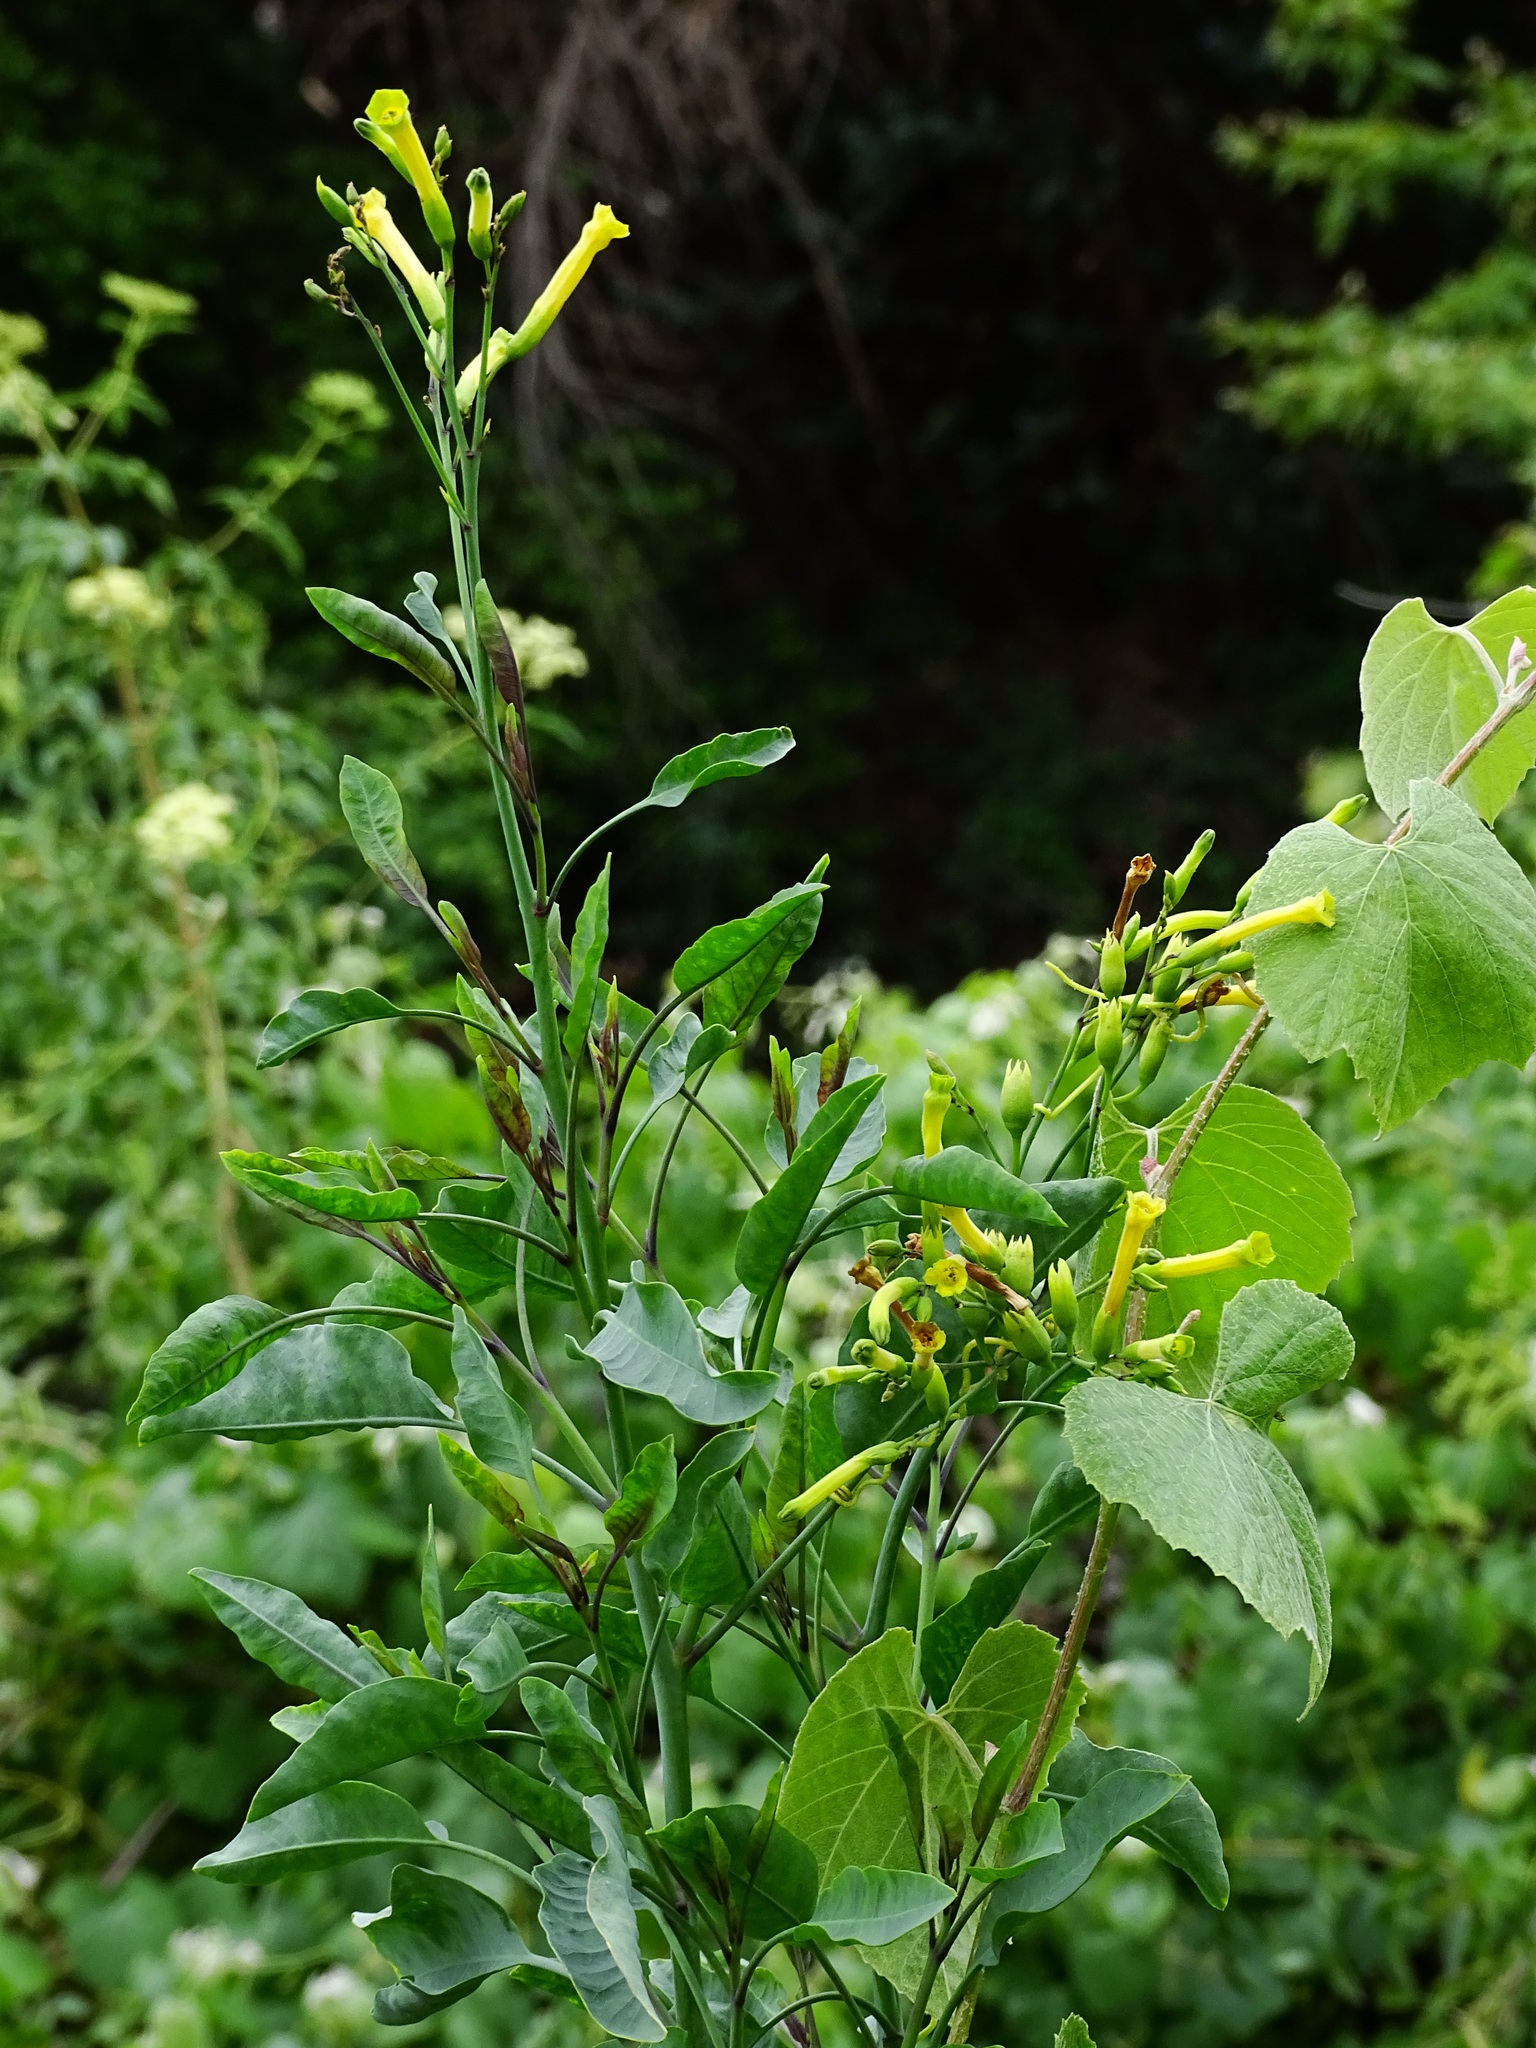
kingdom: Plantae
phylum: Tracheophyta
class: Magnoliopsida
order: Solanales
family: Solanaceae
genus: Nicotiana
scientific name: Nicotiana glauca
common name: Tree tobacco
